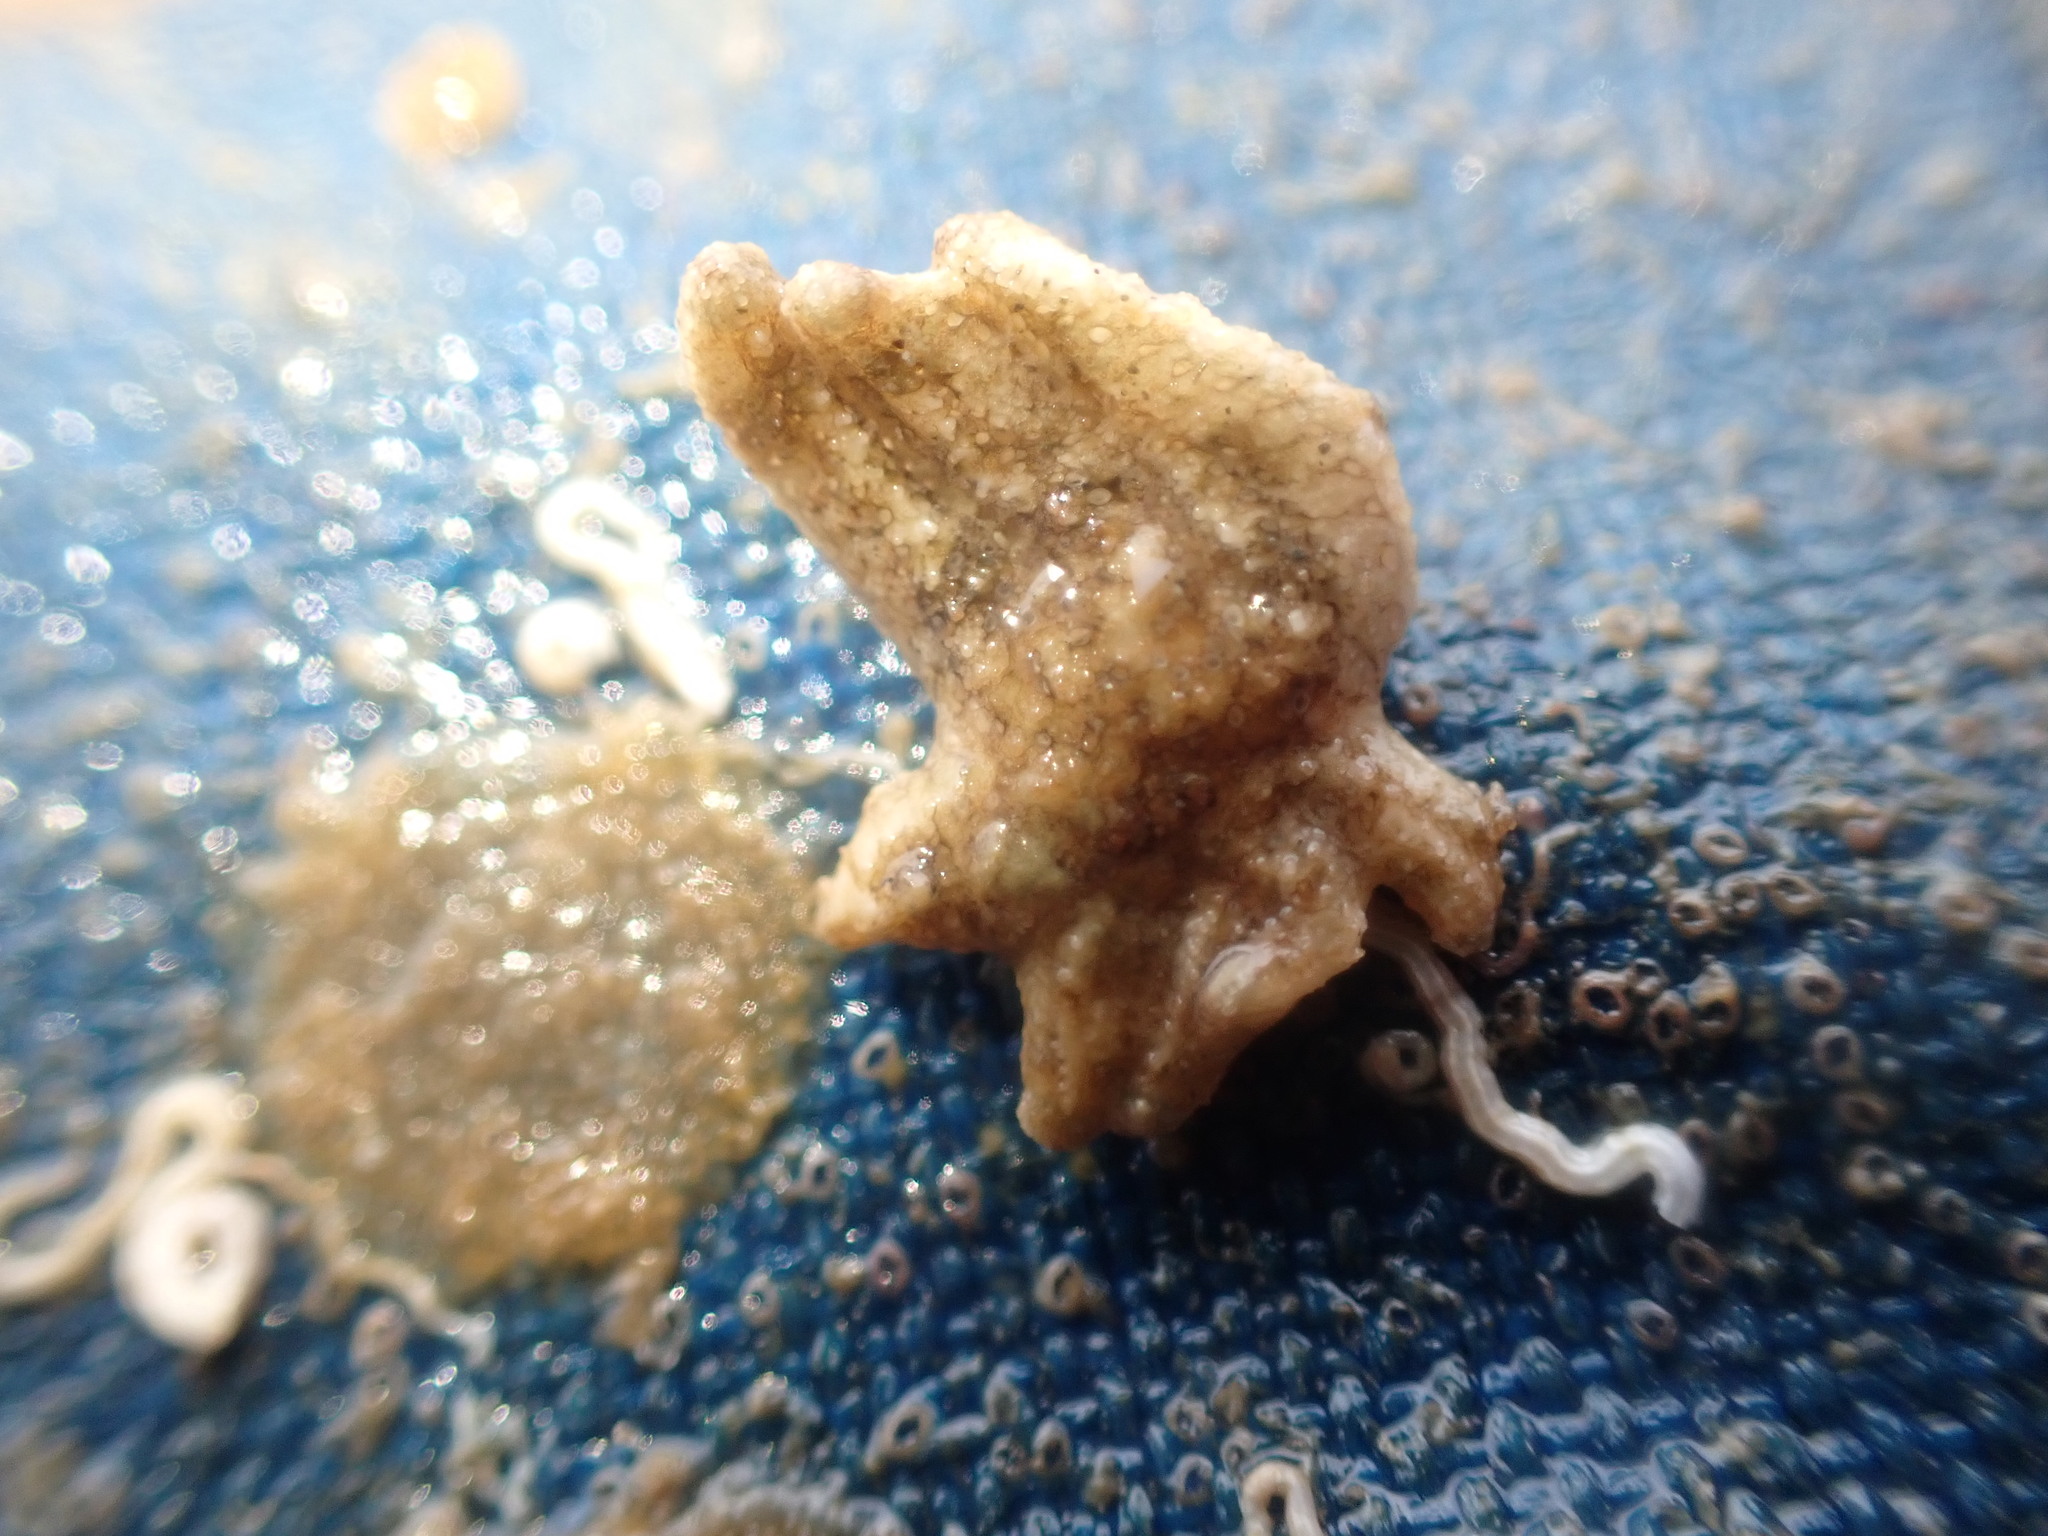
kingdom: Animalia
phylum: Echinodermata
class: Asteroidea
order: Forcipulatida
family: Stichasteridae
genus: Allostichaster
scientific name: Allostichaster polyplax
